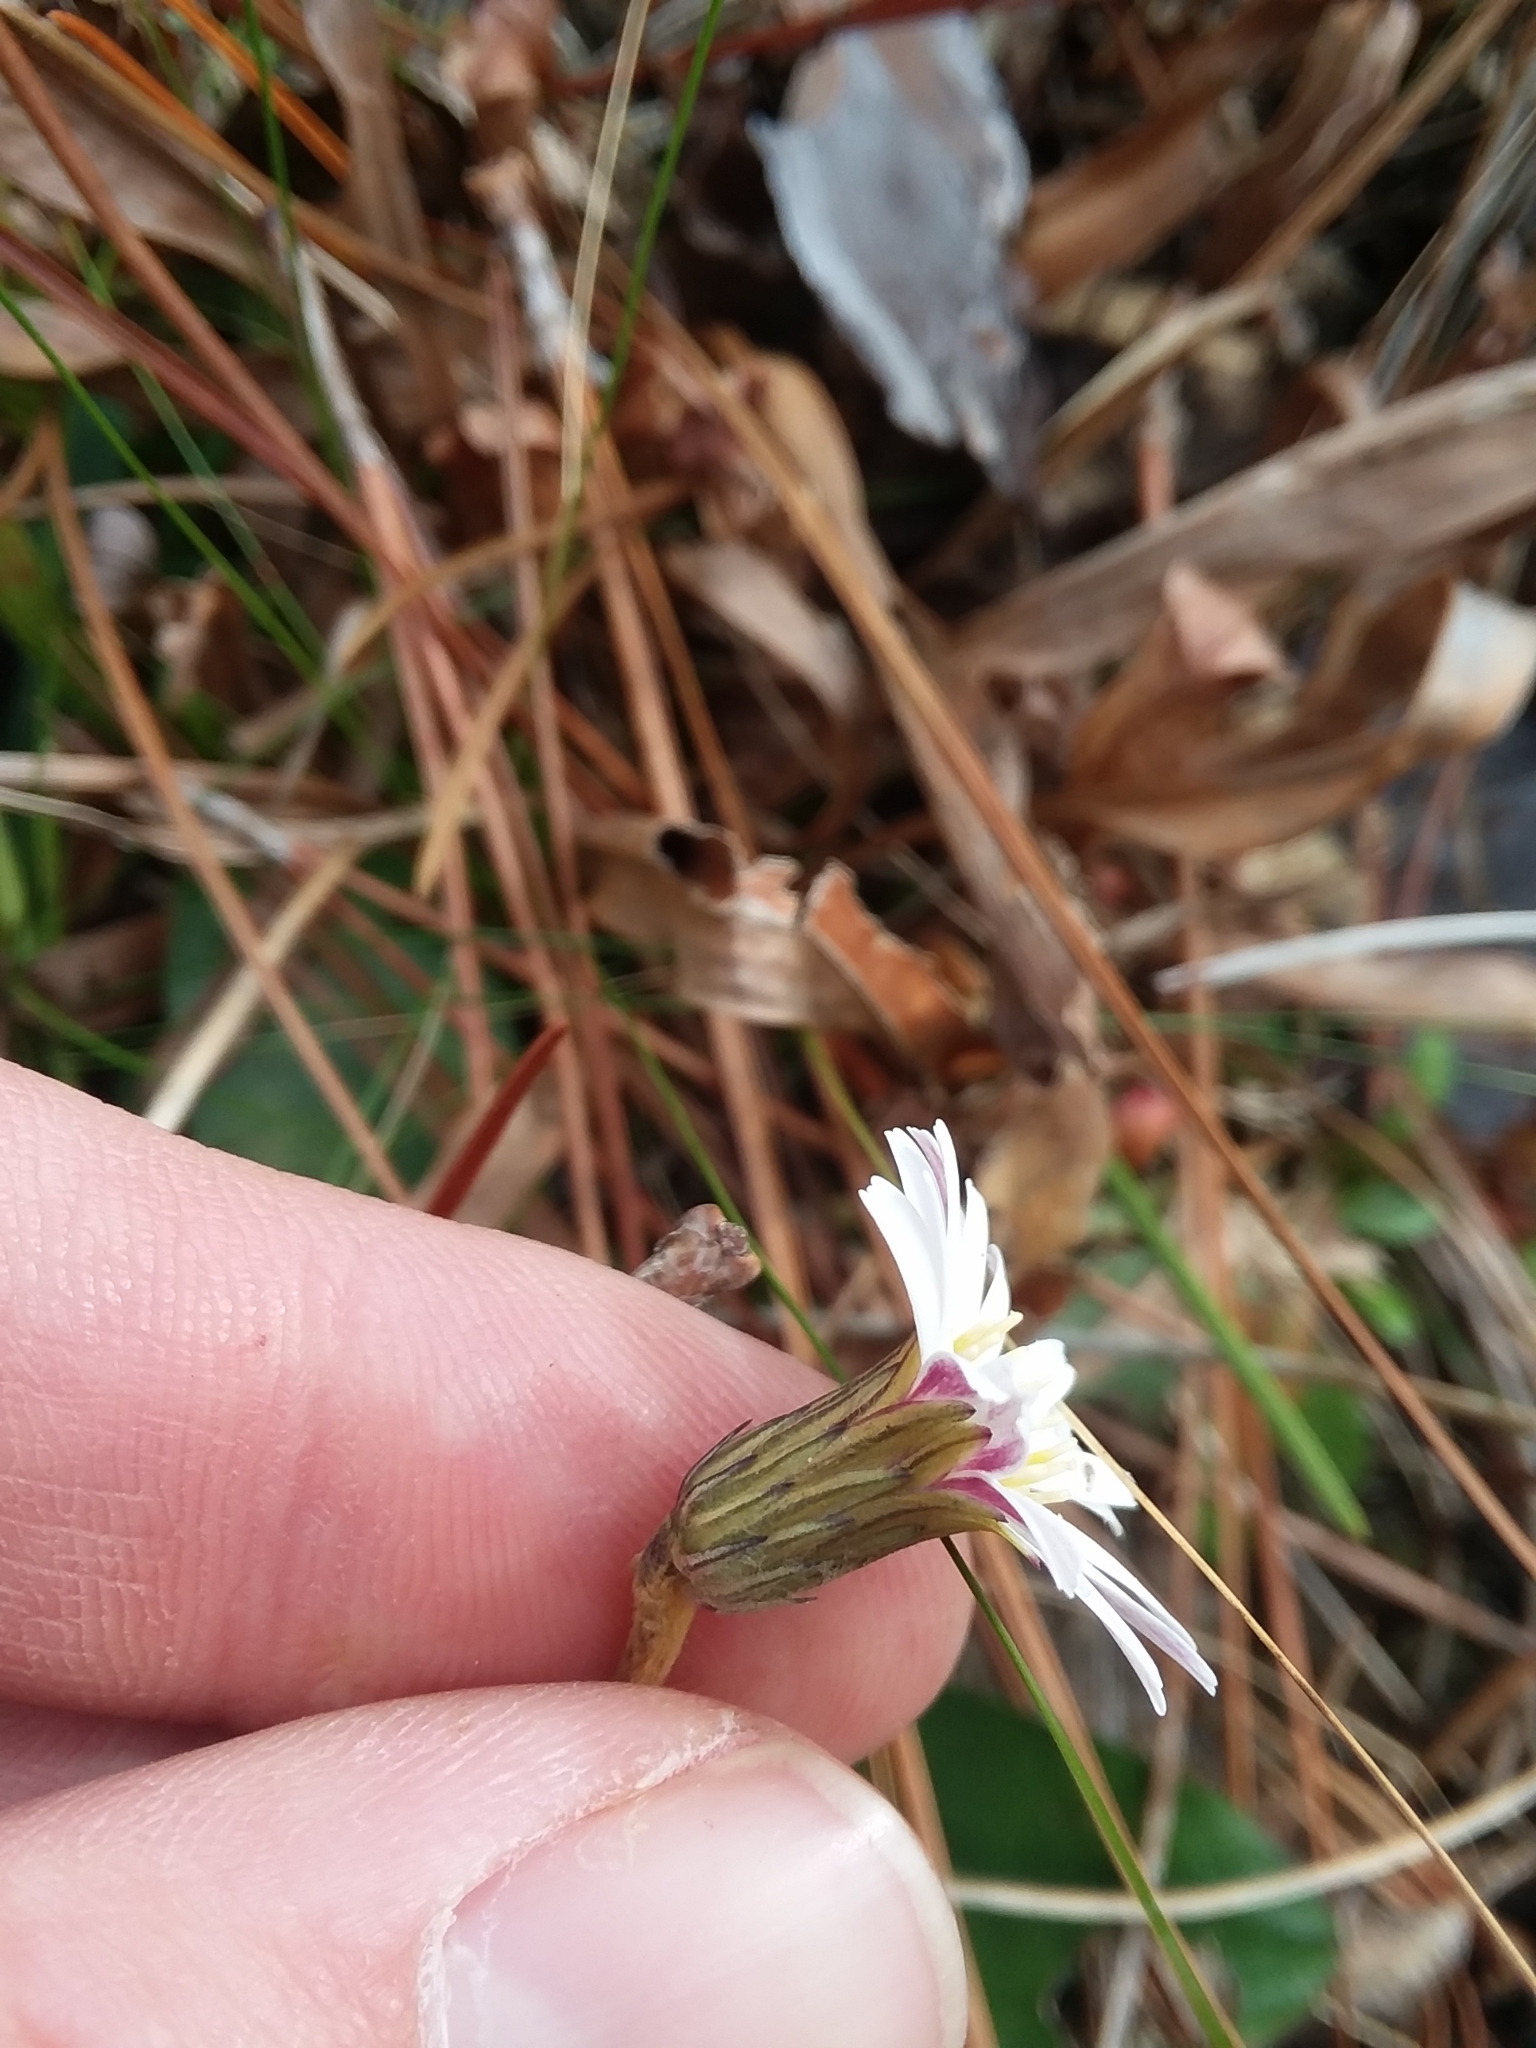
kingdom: Plantae
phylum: Tracheophyta
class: Magnoliopsida
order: Asterales
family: Asteraceae
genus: Chaptalia
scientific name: Chaptalia tomentosa
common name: Woolly sunbonnet
